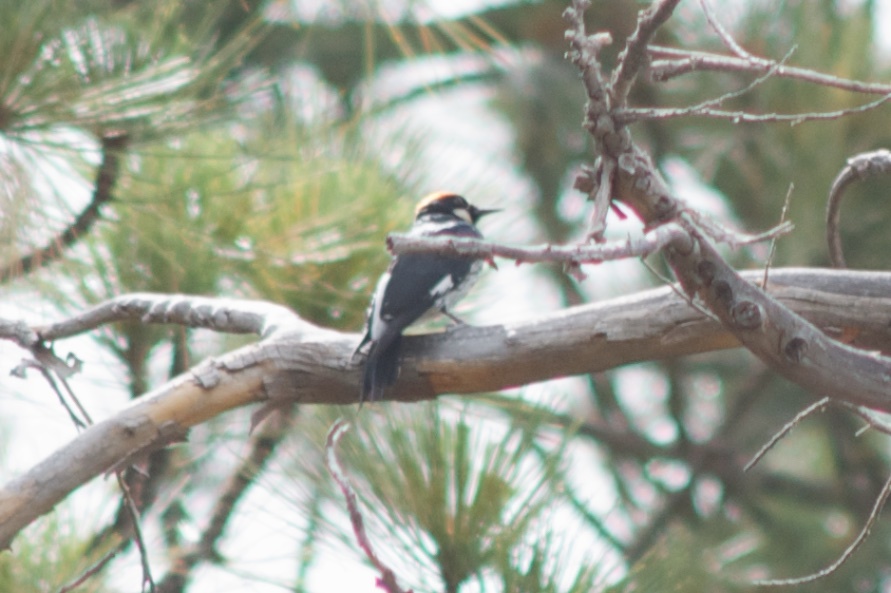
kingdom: Animalia
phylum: Chordata
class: Aves
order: Piciformes
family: Picidae
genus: Melanerpes
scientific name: Melanerpes formicivorus
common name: Acorn woodpecker
